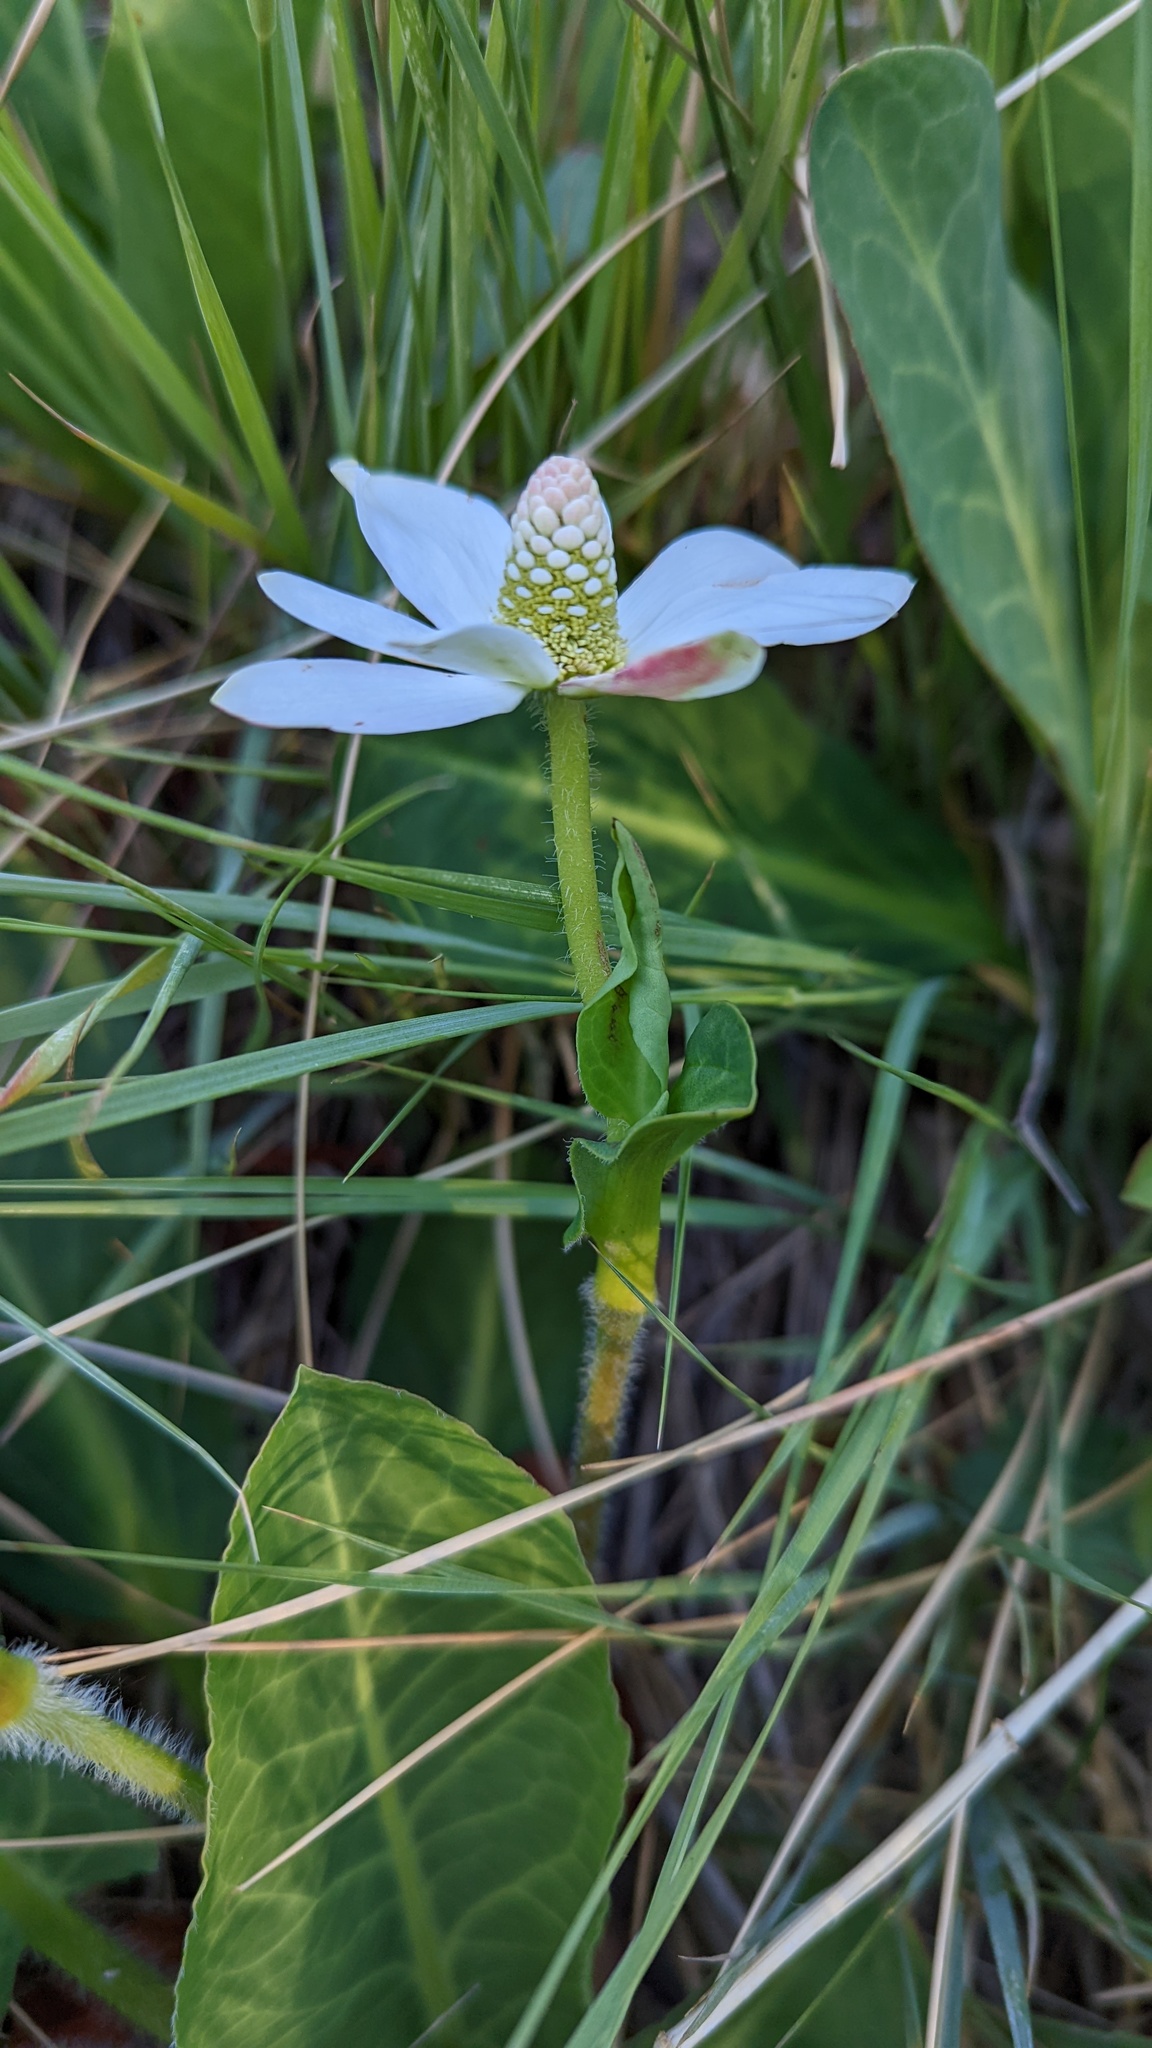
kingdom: Plantae
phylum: Tracheophyta
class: Magnoliopsida
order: Piperales
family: Saururaceae
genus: Anemopsis
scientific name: Anemopsis californica
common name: Apache-beads
